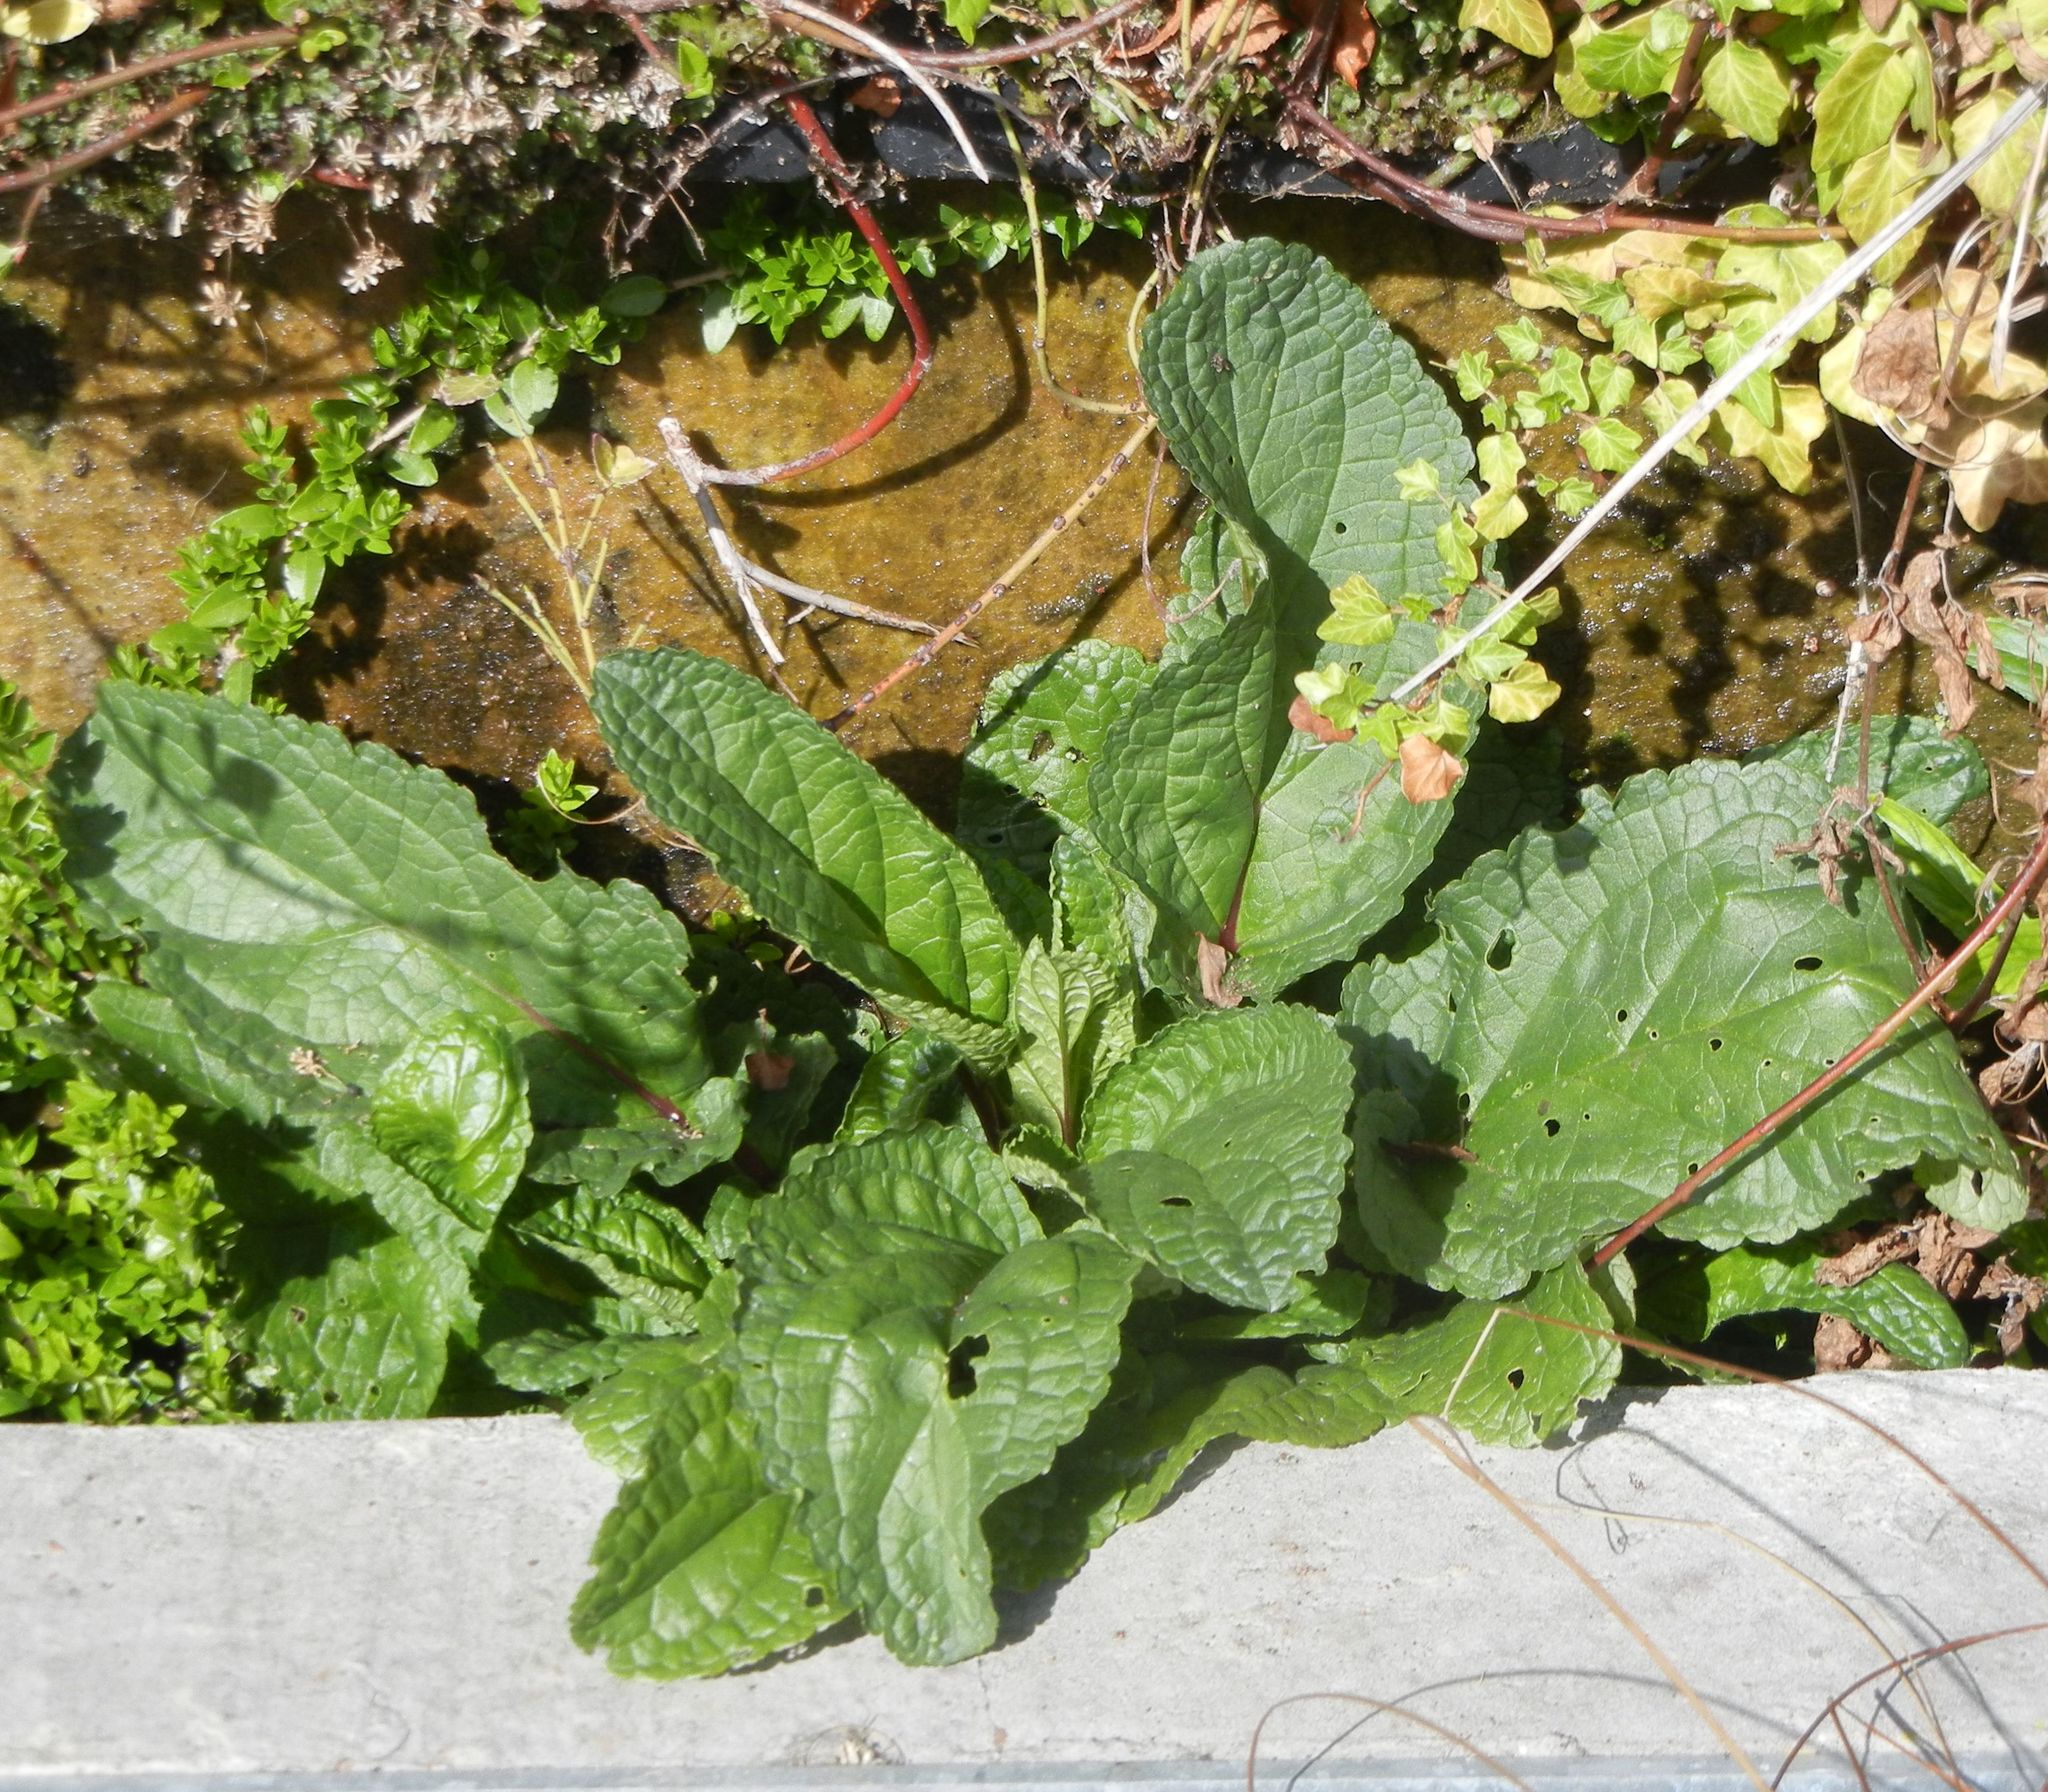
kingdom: Plantae
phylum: Tracheophyta
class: Magnoliopsida
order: Lamiales
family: Scrophulariaceae
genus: Scrophularia
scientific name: Scrophularia auriculata
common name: Water betony
